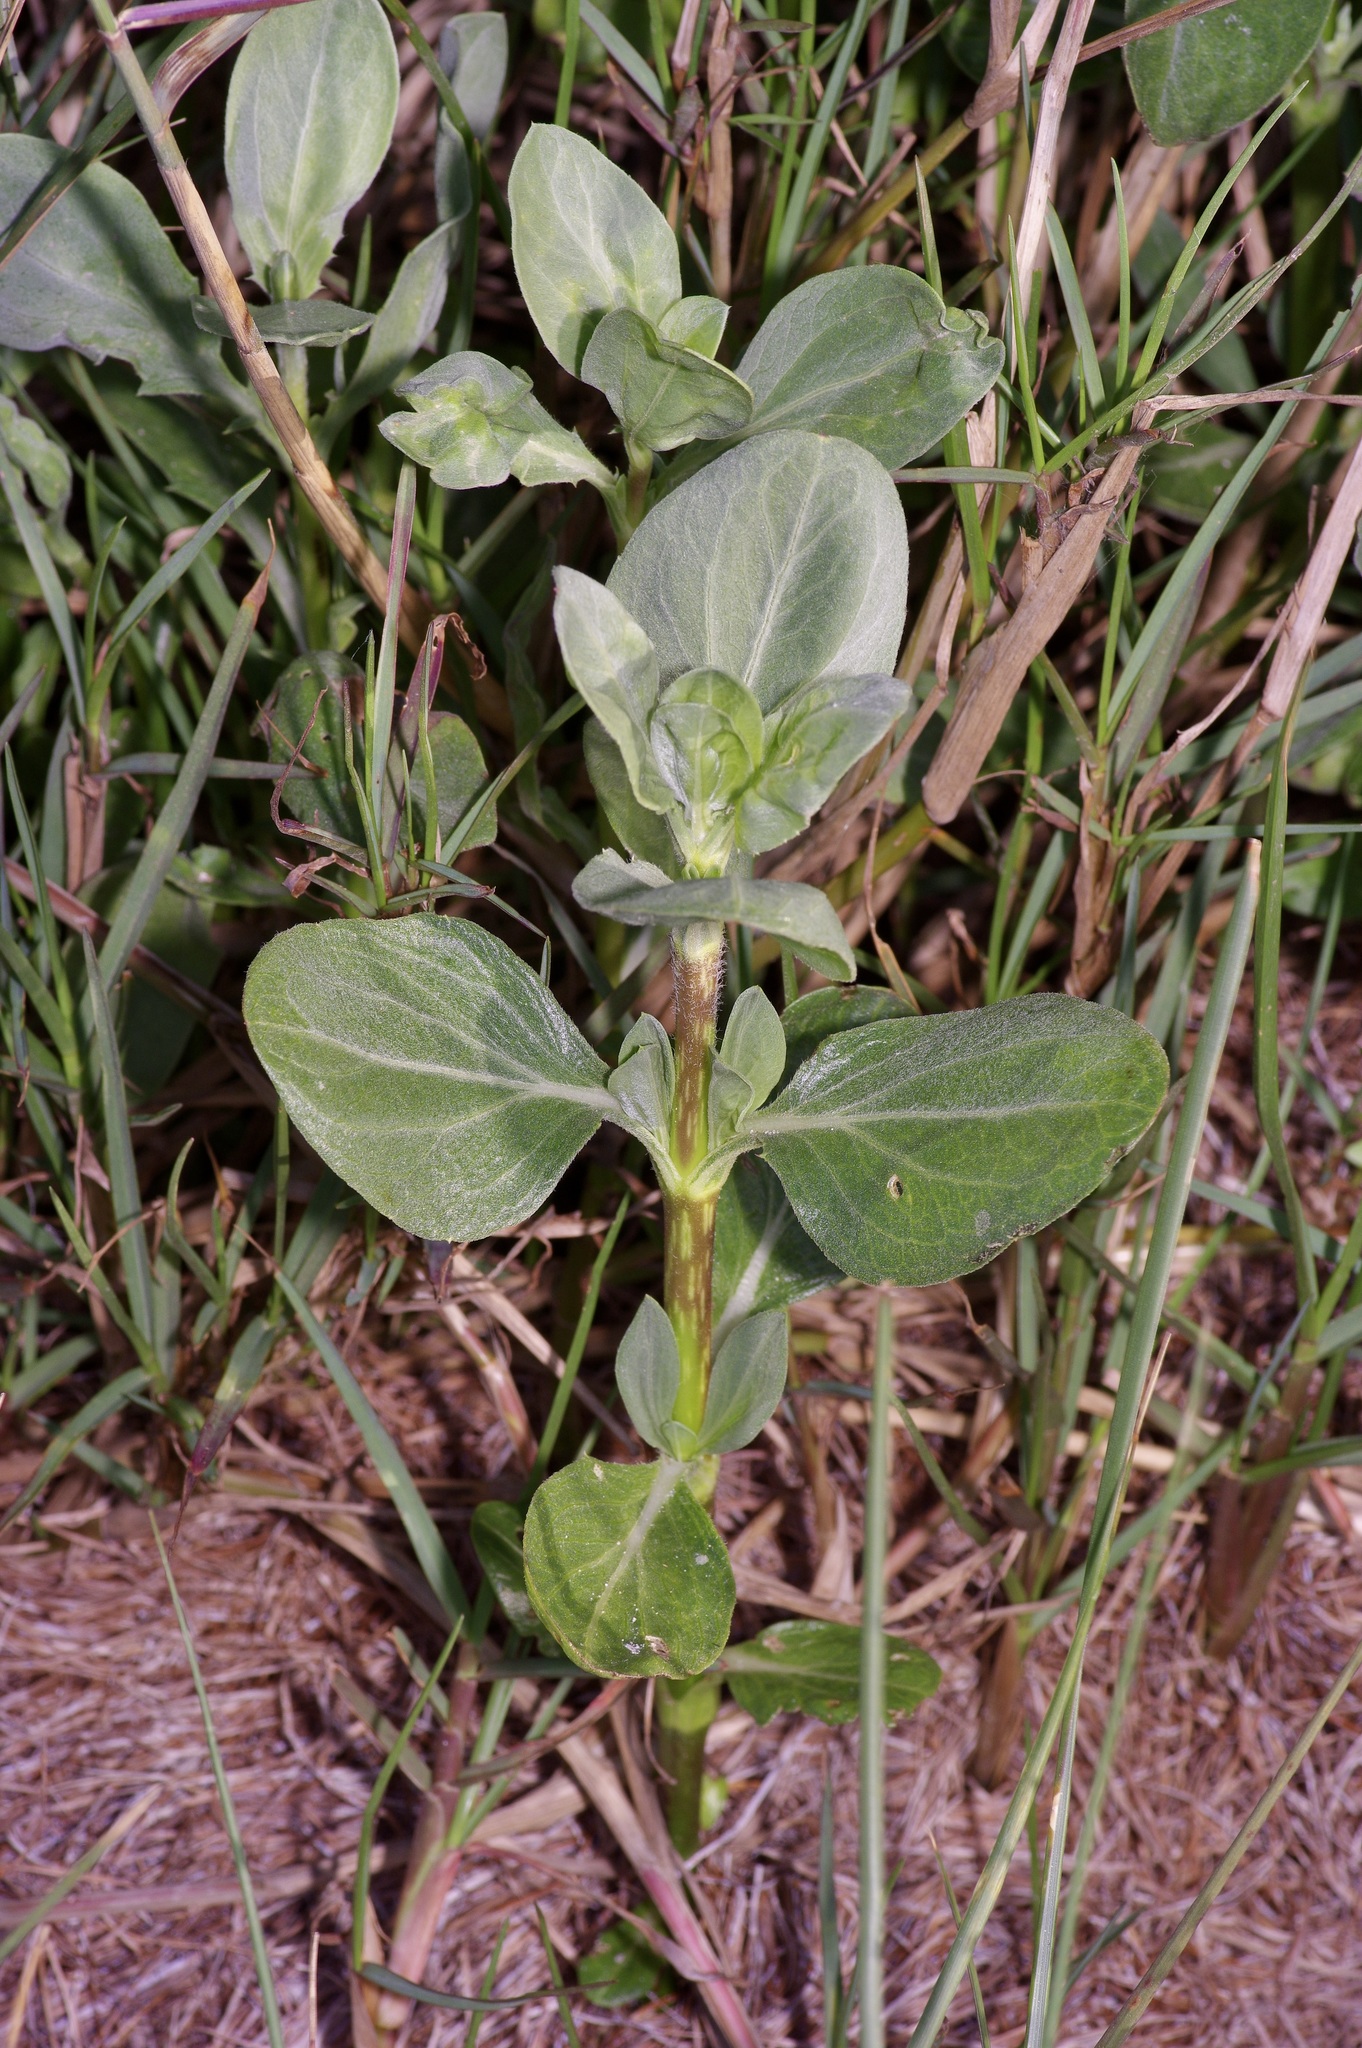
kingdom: Plantae
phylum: Tracheophyta
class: Magnoliopsida
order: Asterales
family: Asteraceae
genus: Borrichia
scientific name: Borrichia frutescens
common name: Sea oxeye
